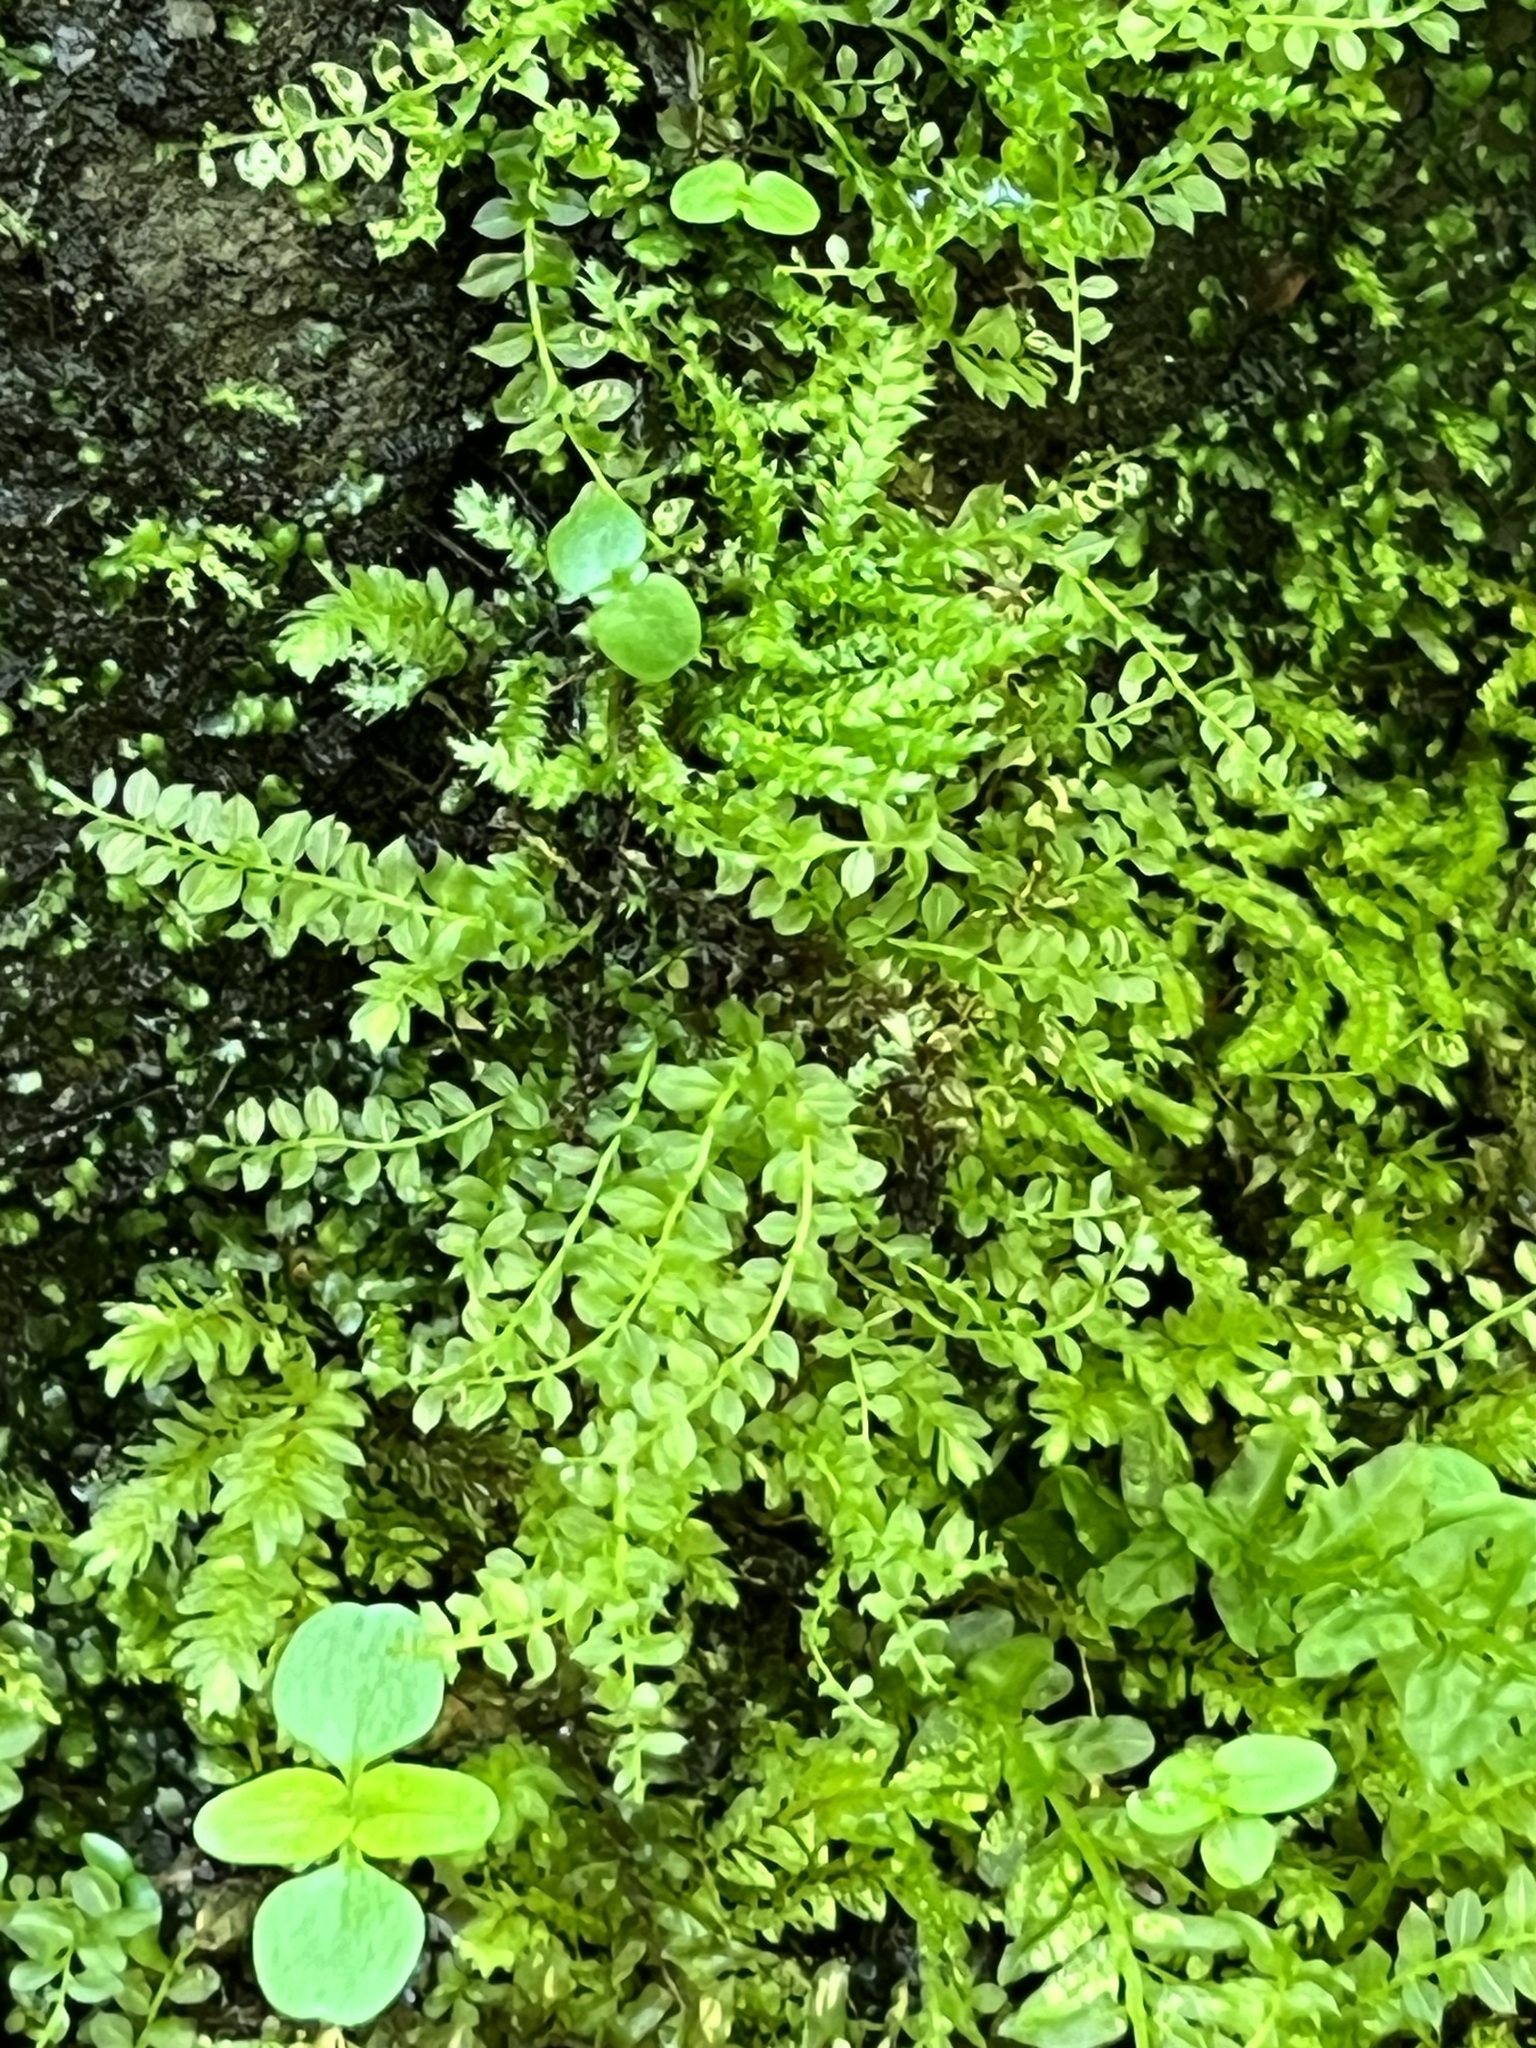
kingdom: Plantae
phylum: Bryophyta
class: Bryopsida
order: Bryales
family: Mniaceae
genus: Plagiomnium
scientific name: Plagiomnium cuspidatum
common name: Woodsy leafy moss
